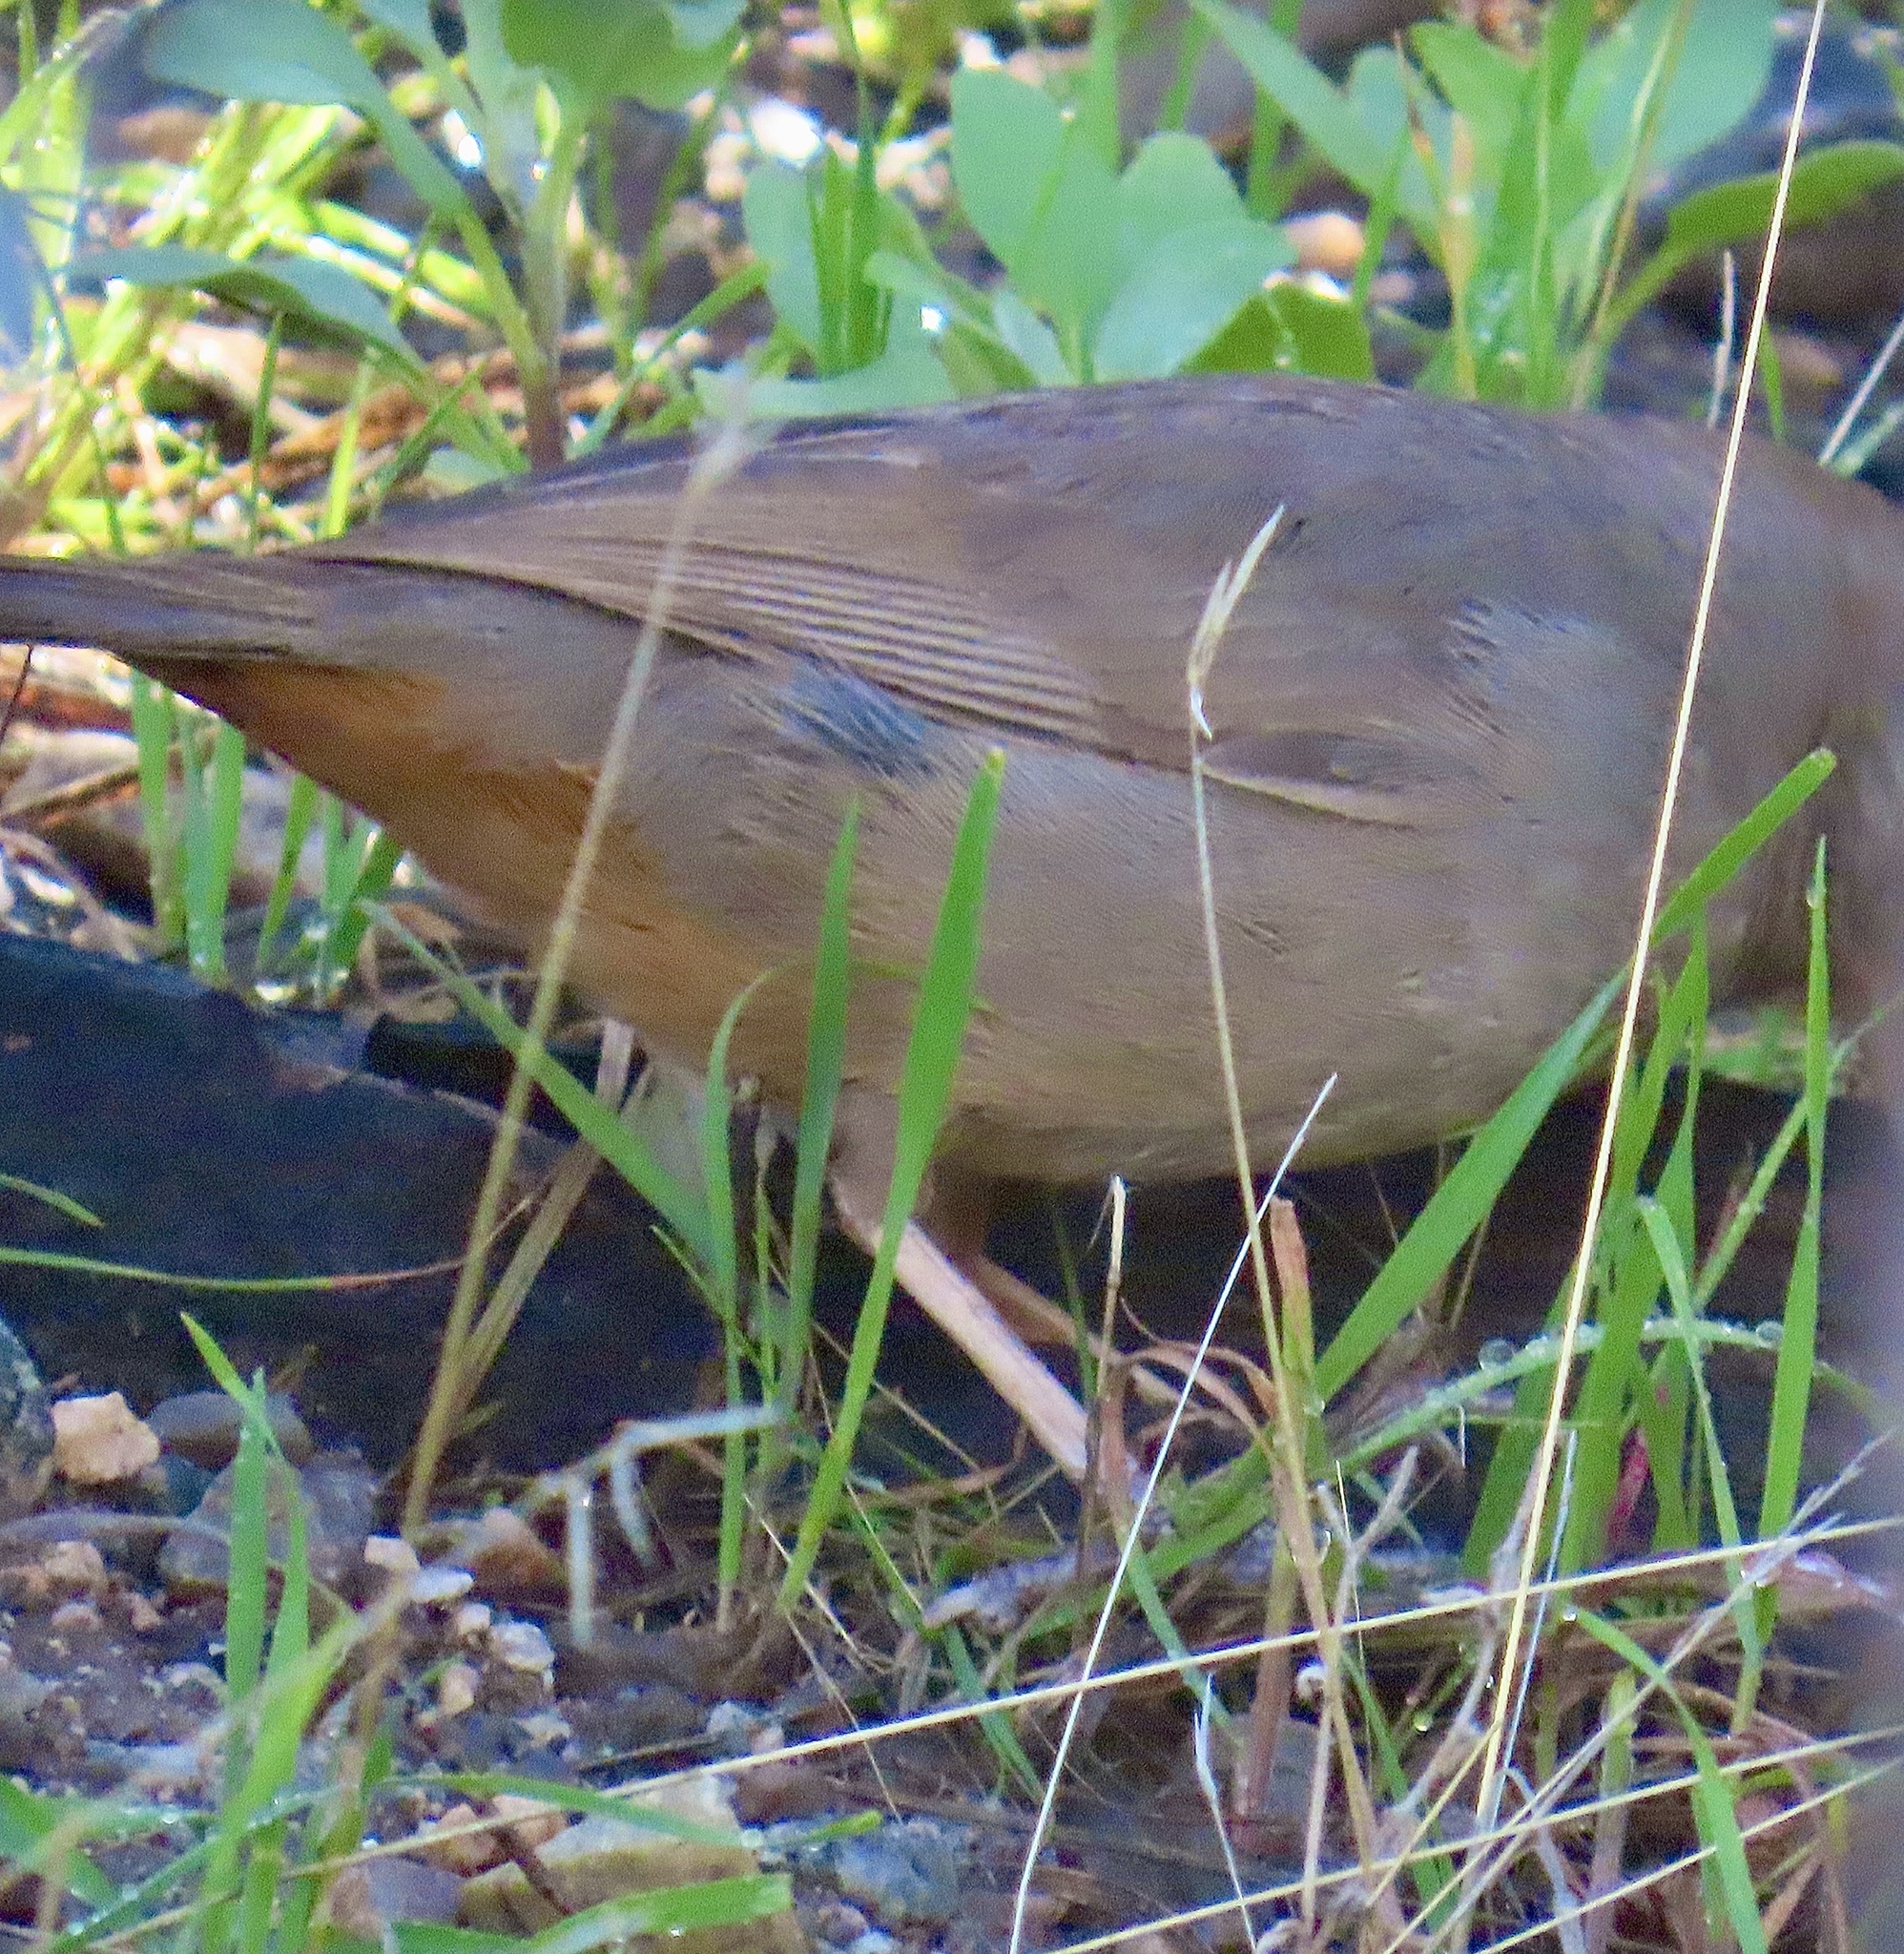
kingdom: Animalia
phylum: Chordata
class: Aves
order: Passeriformes
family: Passerellidae
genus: Melozone
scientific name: Melozone crissalis
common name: California towhee
